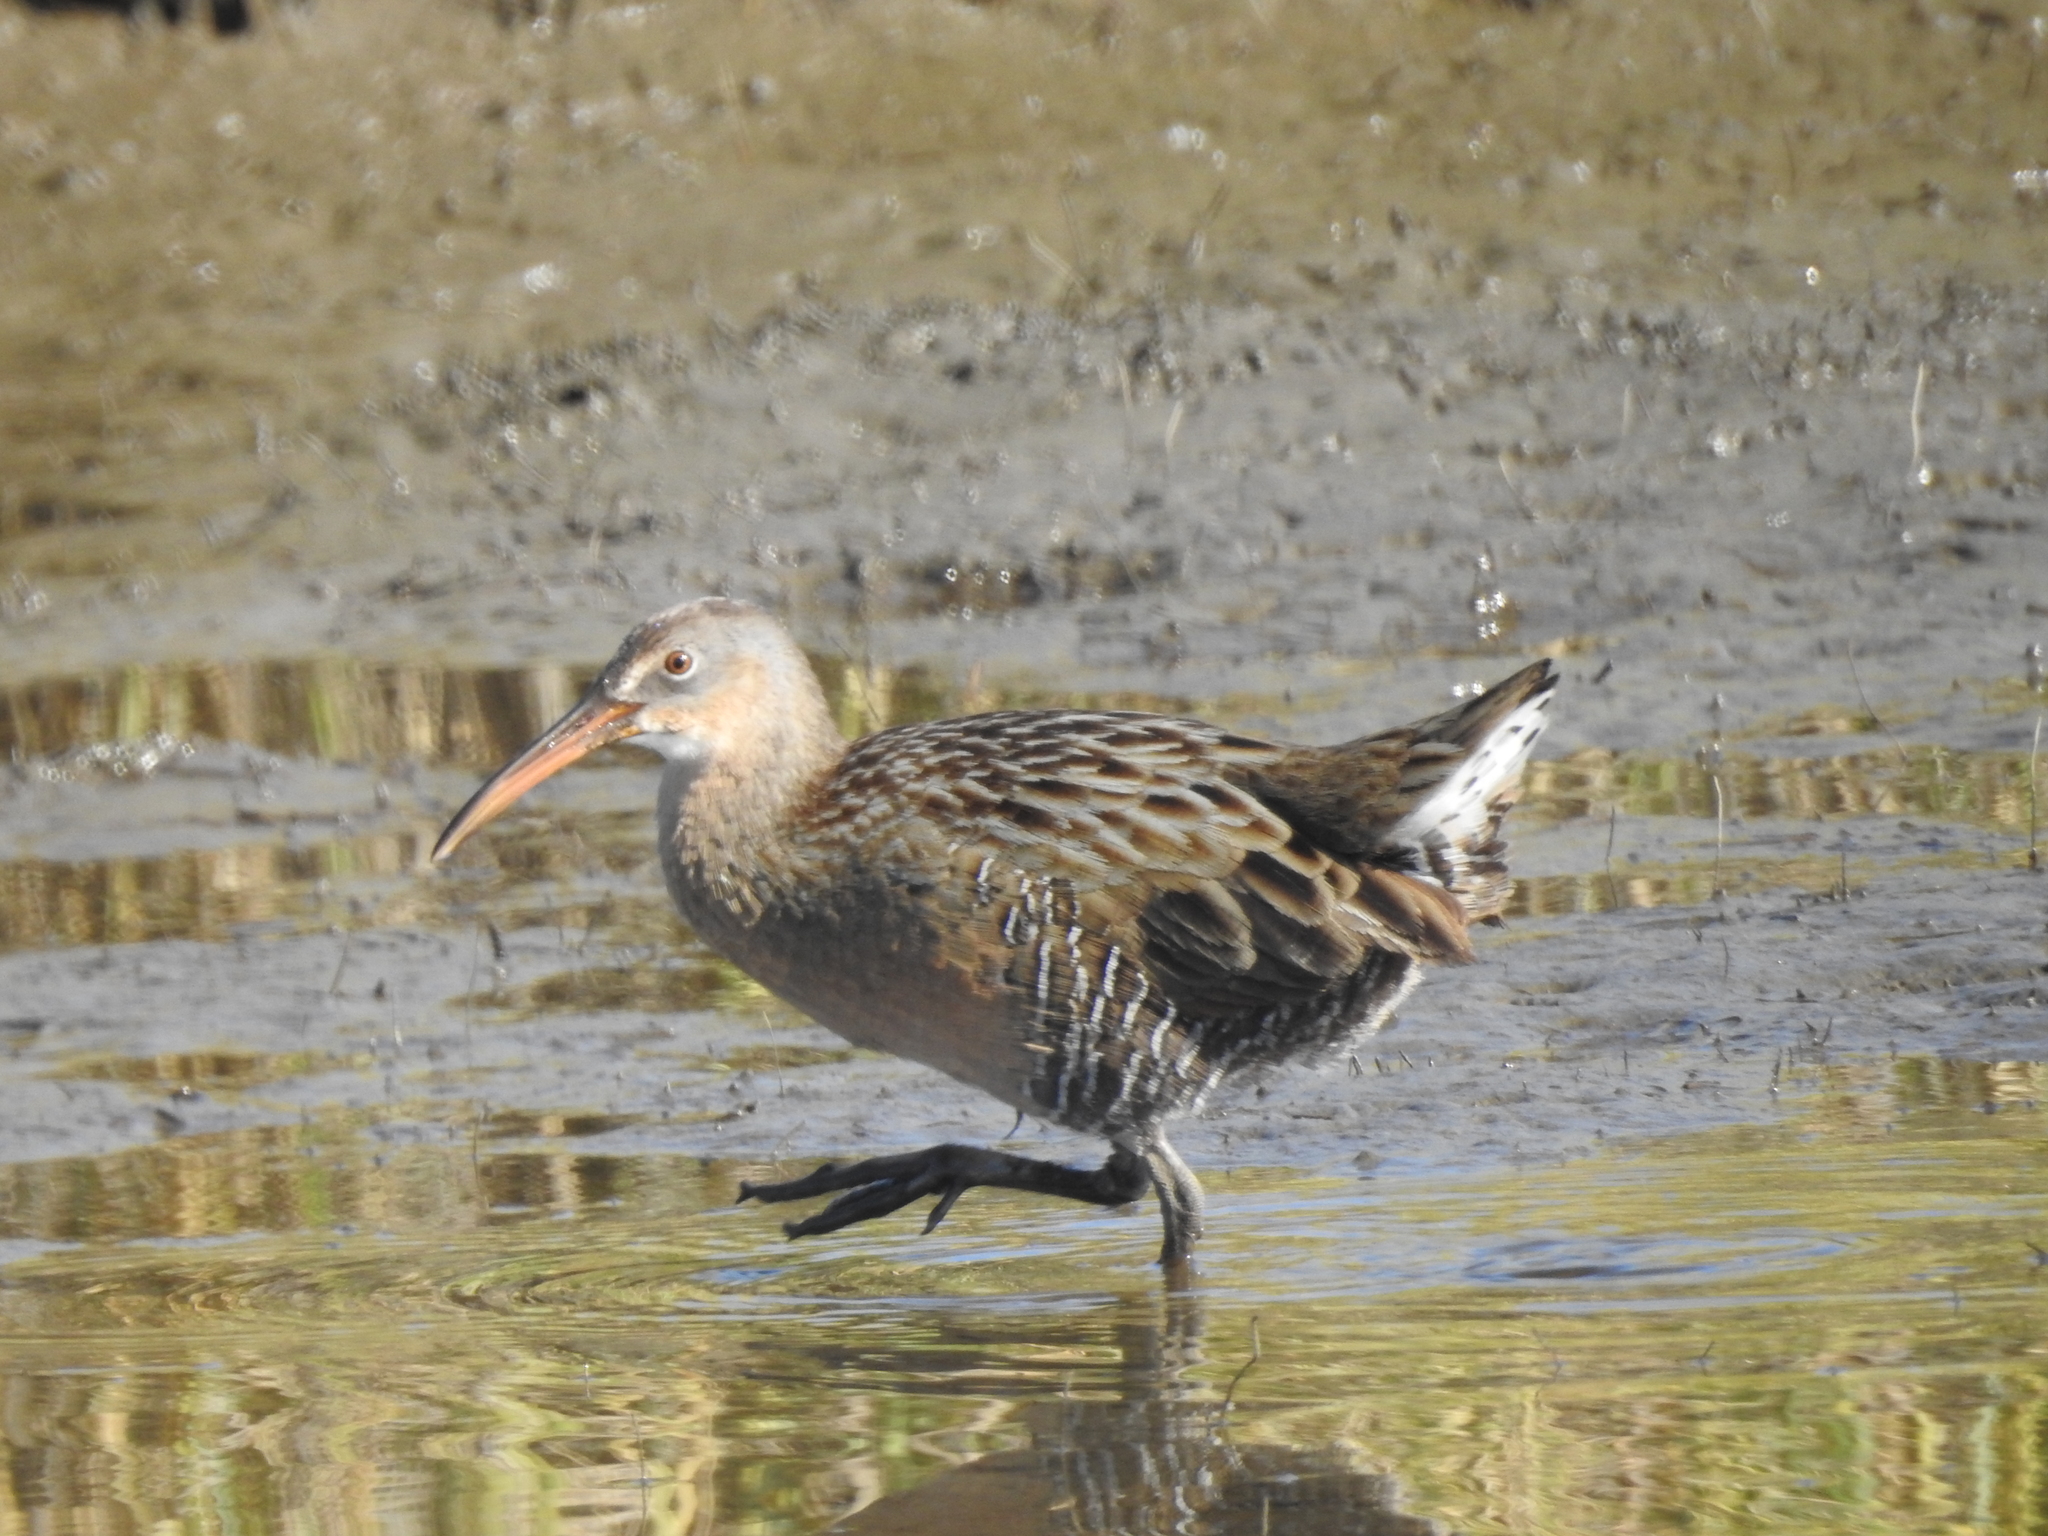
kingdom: Animalia
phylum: Chordata
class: Aves
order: Gruiformes
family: Rallidae
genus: Rallus
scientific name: Rallus crepitans
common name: Clapper rail
